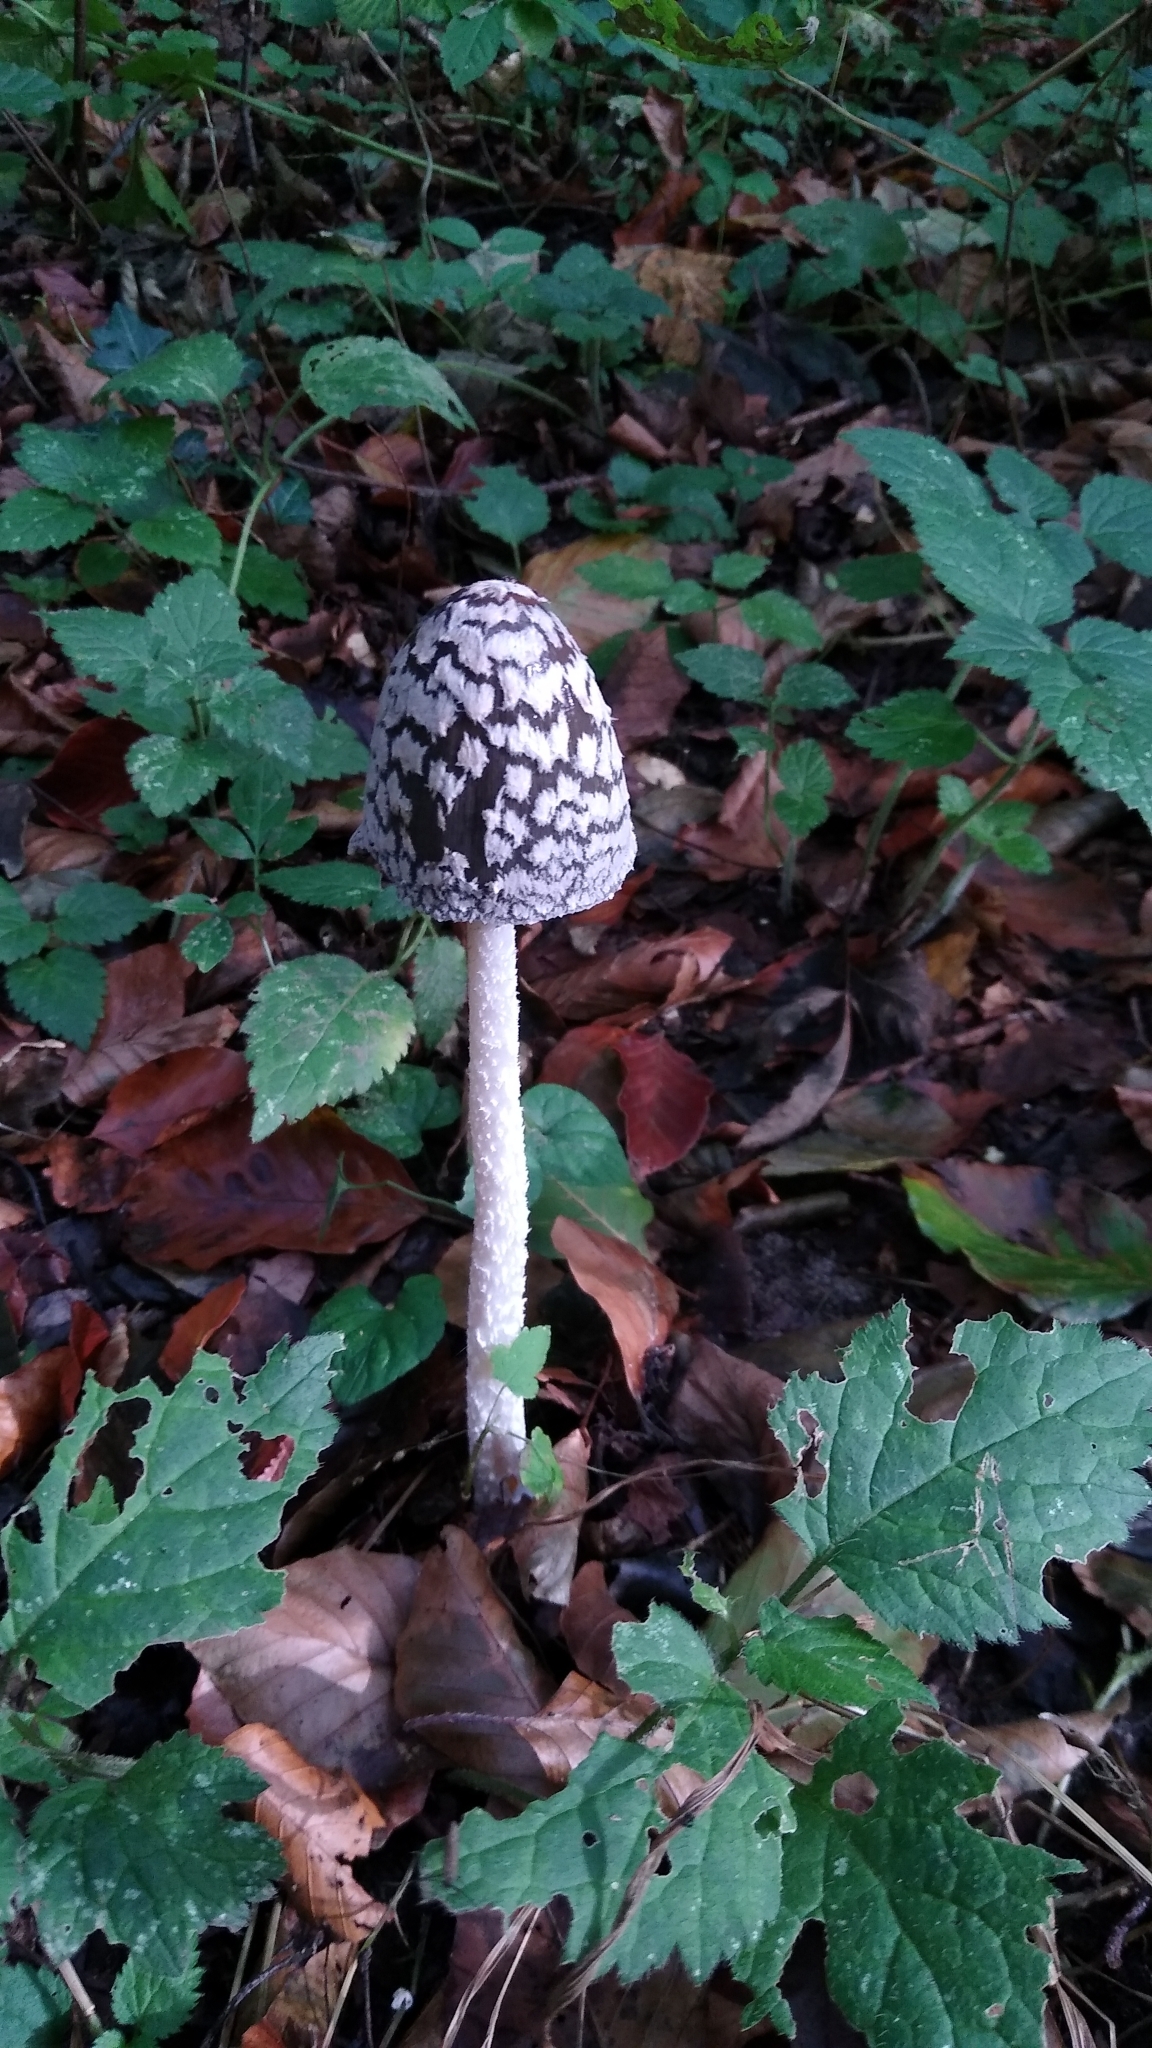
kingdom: Fungi
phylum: Basidiomycota
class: Agaricomycetes
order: Agaricales
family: Psathyrellaceae
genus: Coprinopsis
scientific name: Coprinopsis picacea
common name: Magpie inkcap
